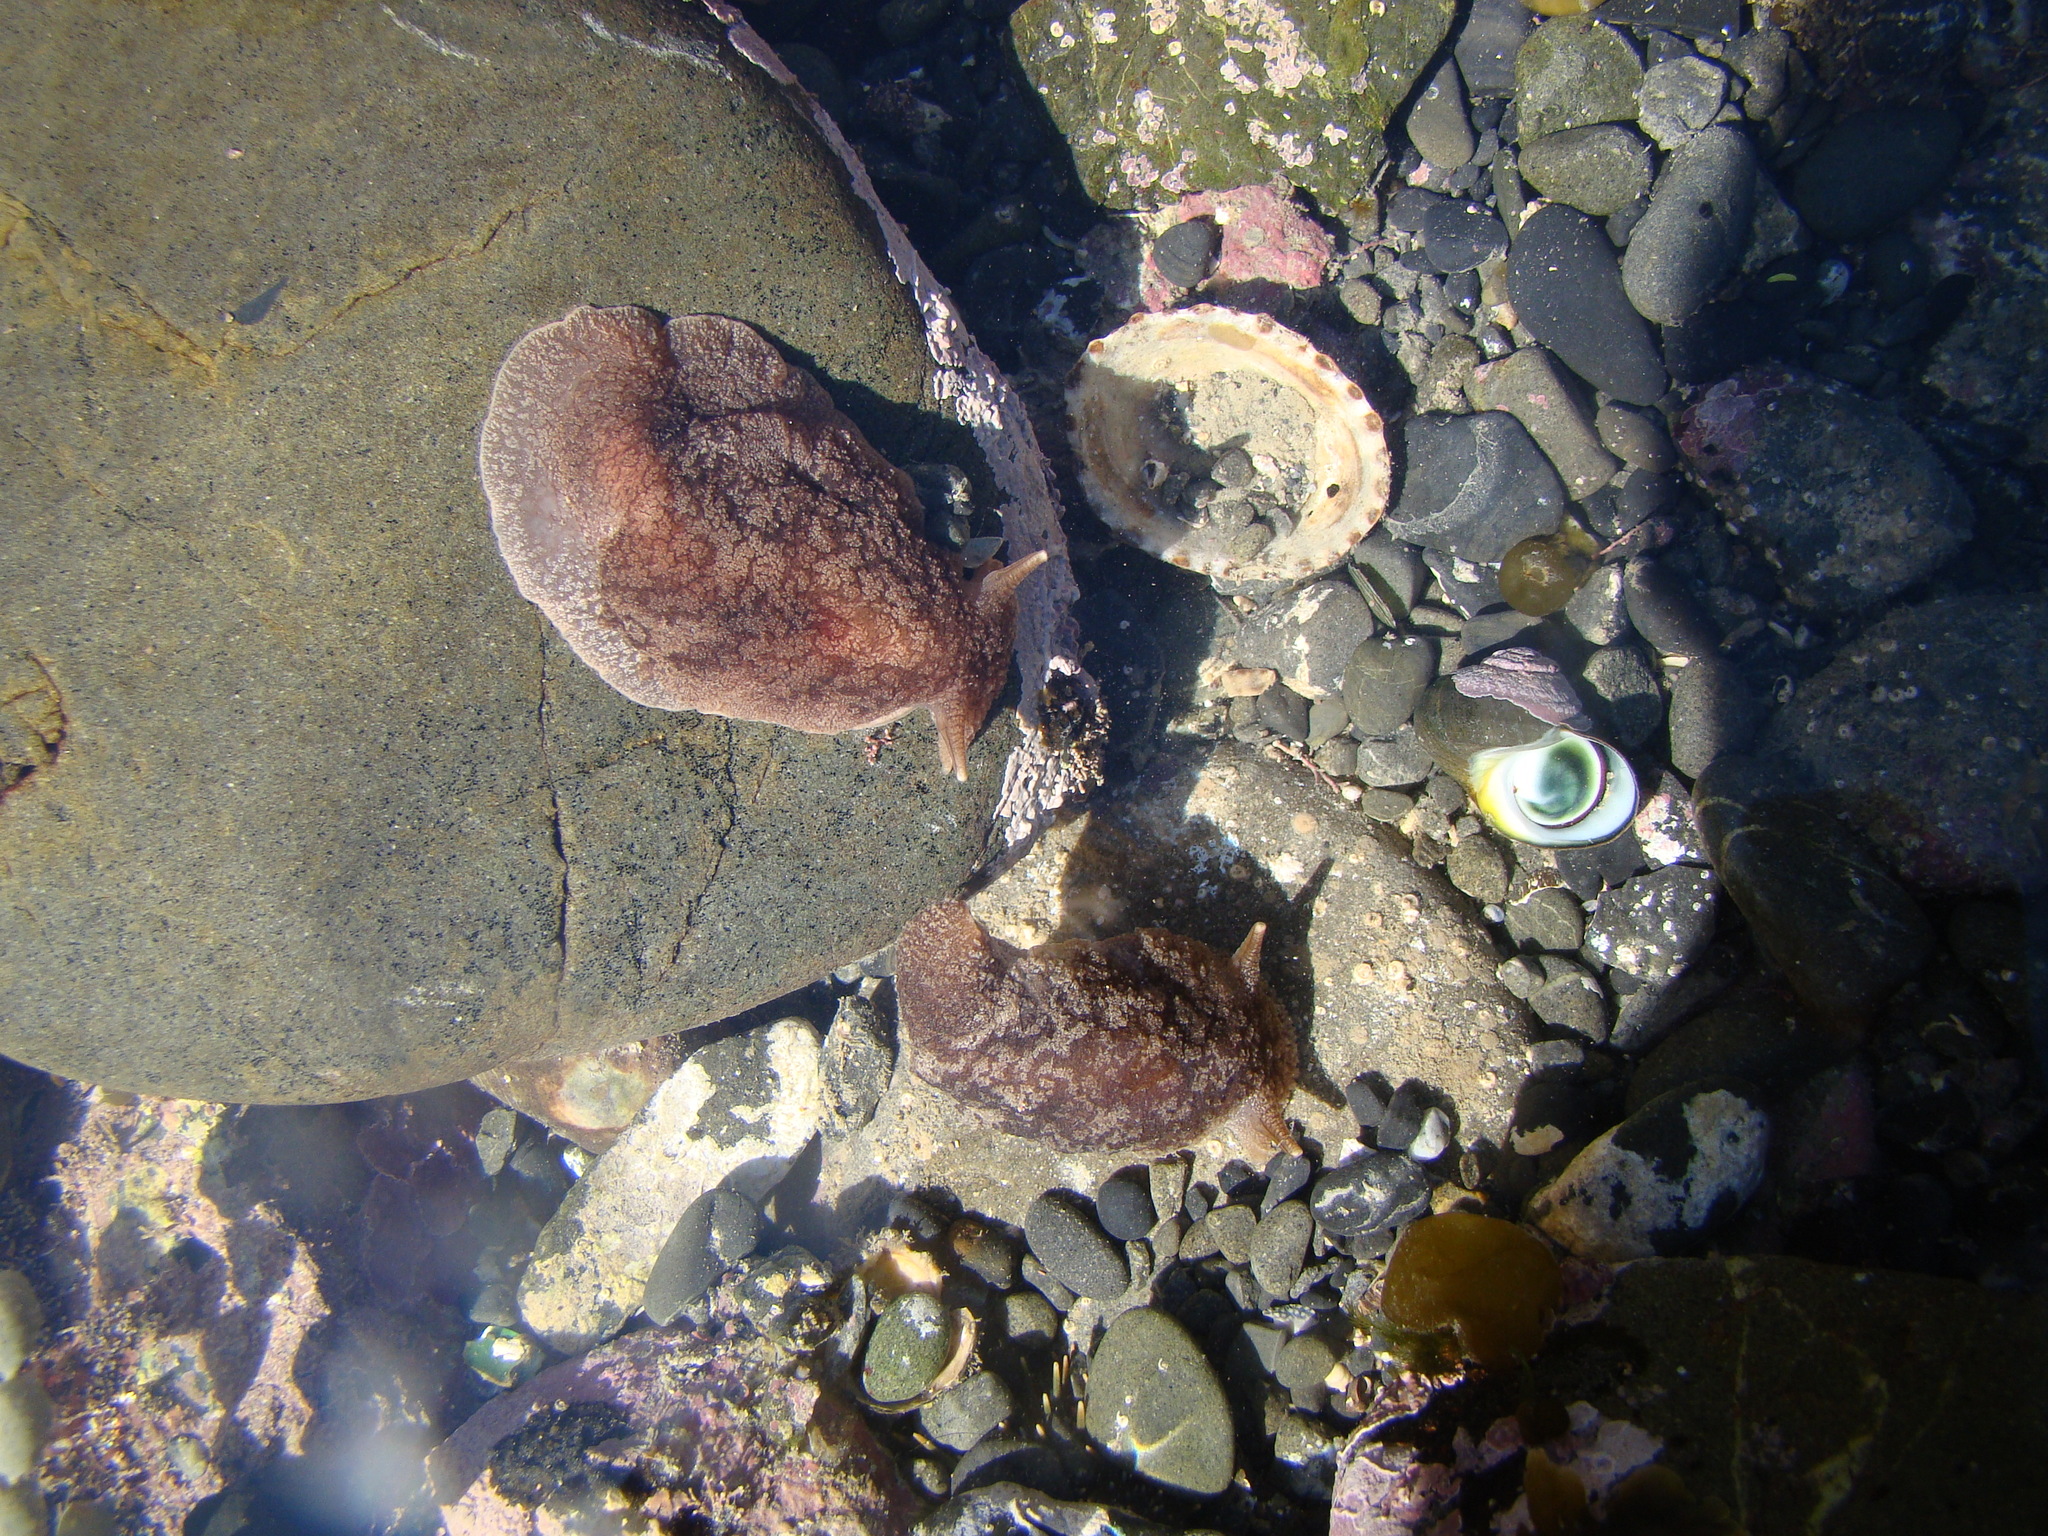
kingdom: Animalia
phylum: Mollusca
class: Gastropoda
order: Pleurobranchida
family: Pleurobranchaeidae
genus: Pleurobranchaea
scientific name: Pleurobranchaea maculata
